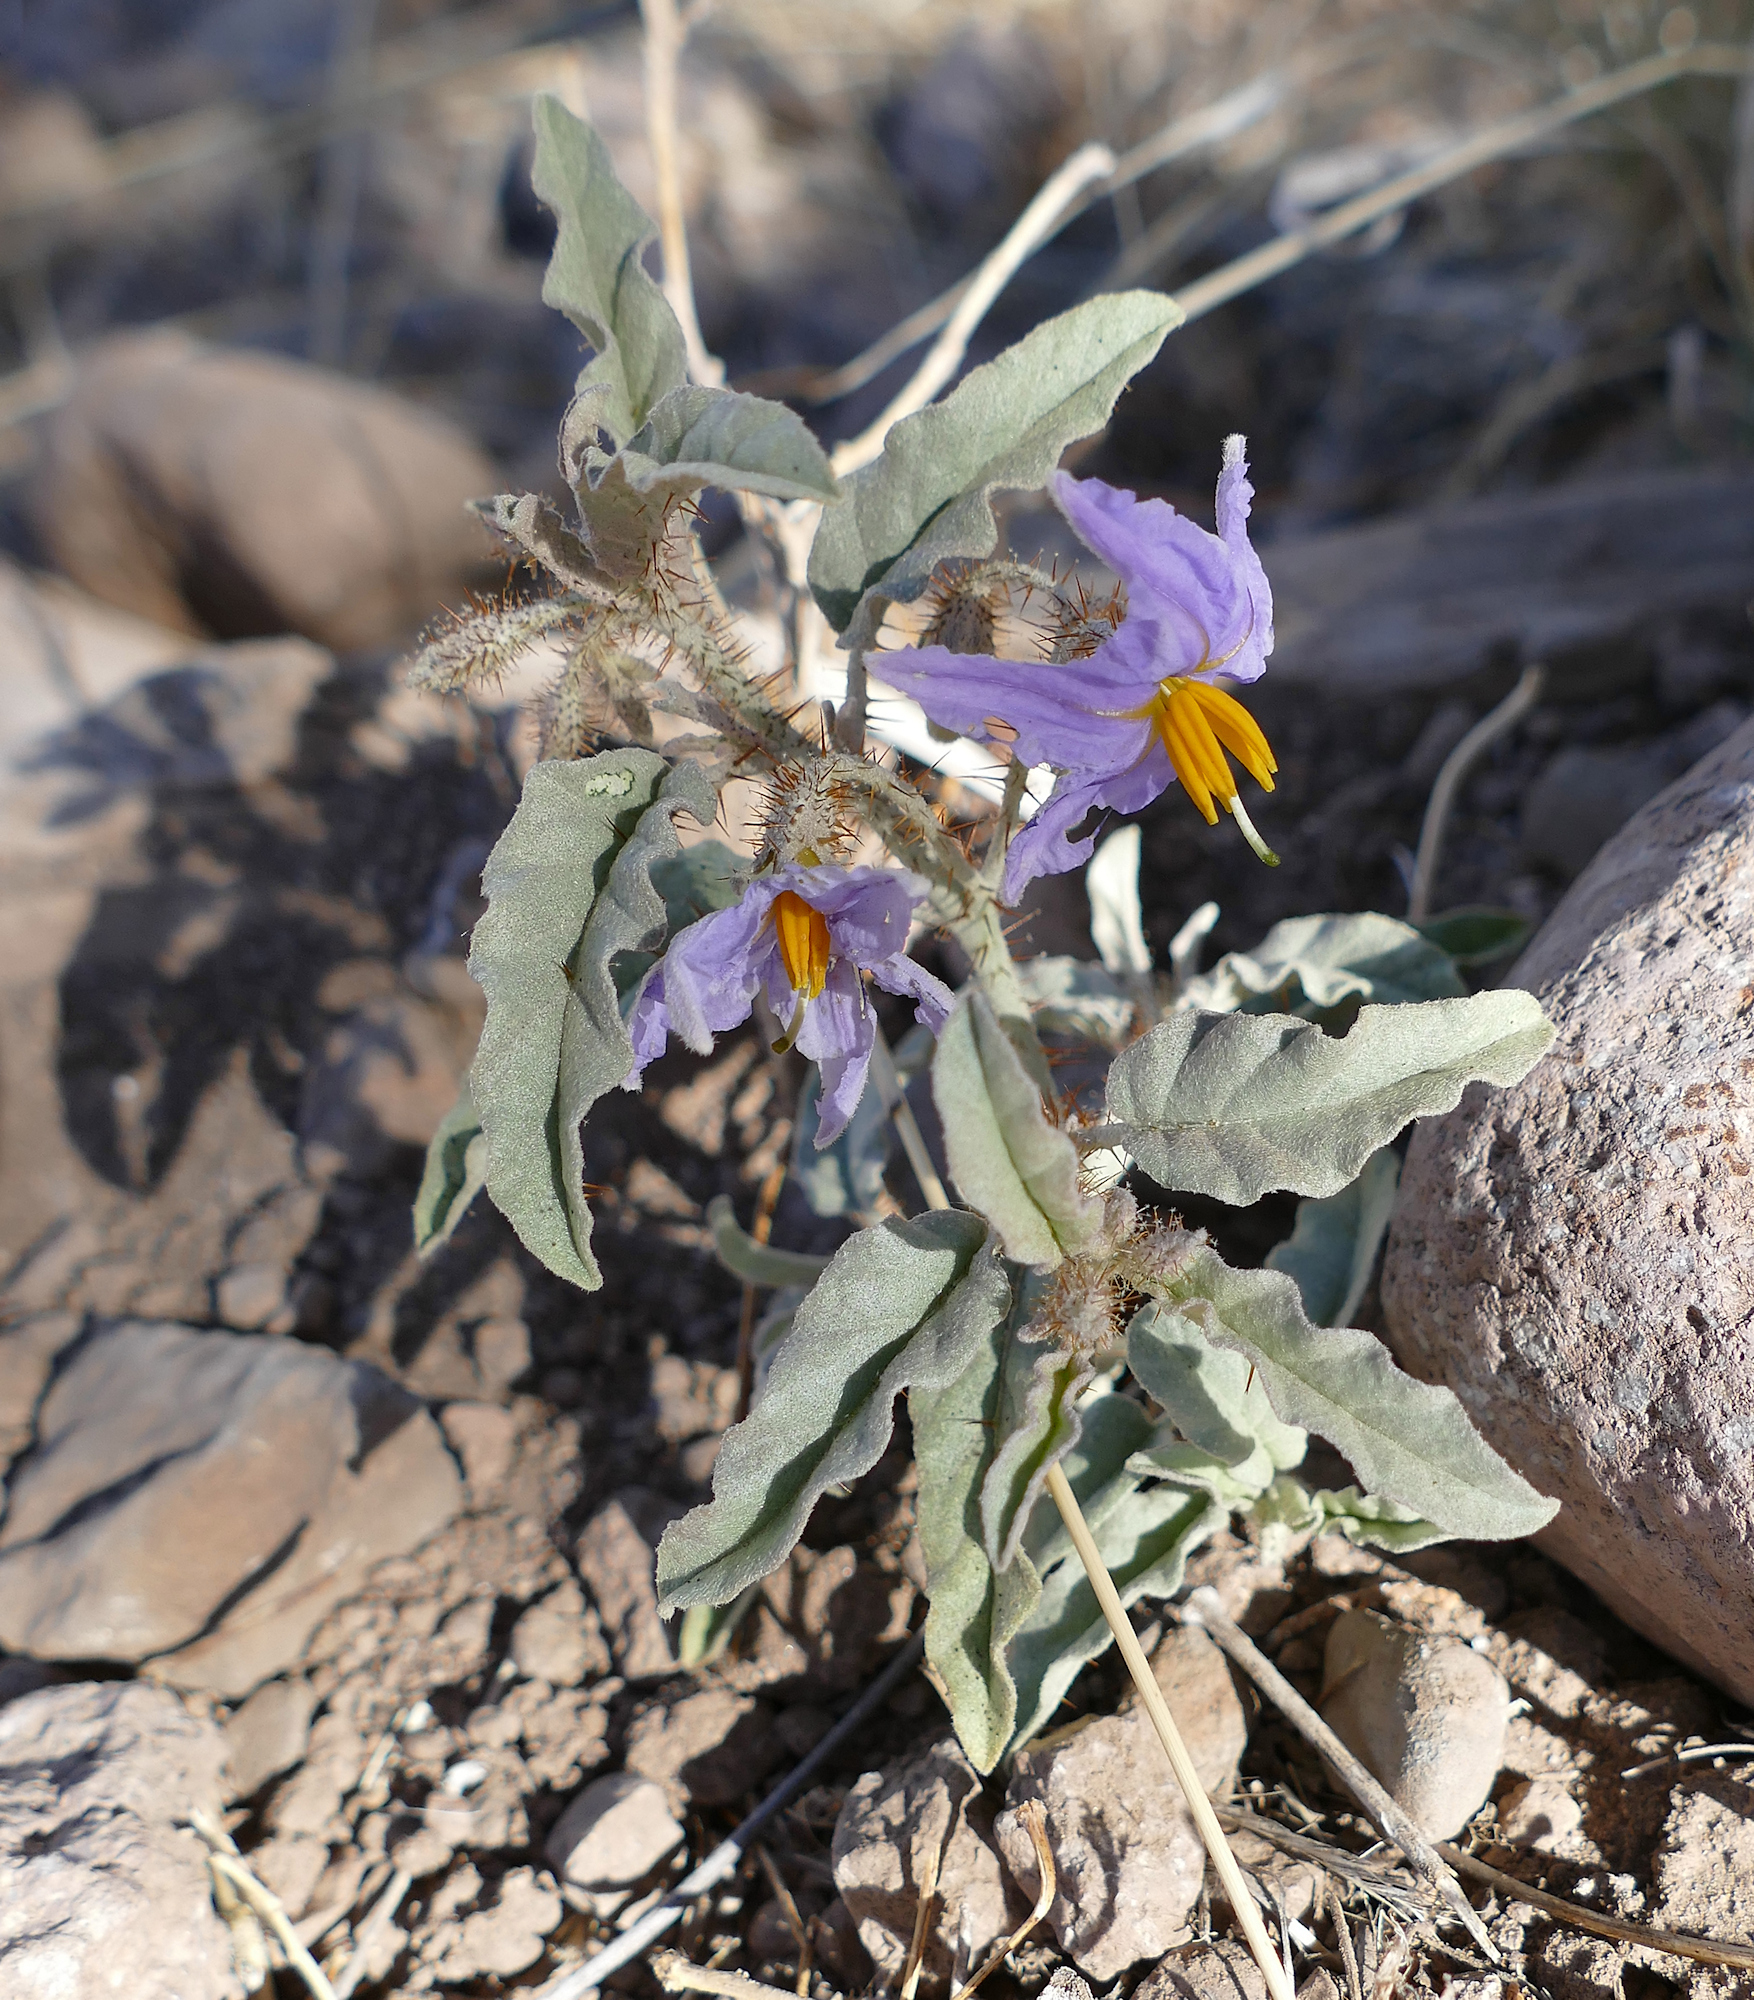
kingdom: Plantae
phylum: Tracheophyta
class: Magnoliopsida
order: Solanales
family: Solanaceae
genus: Solanum
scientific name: Solanum elaeagnifolium
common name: Silverleaf nightshade
